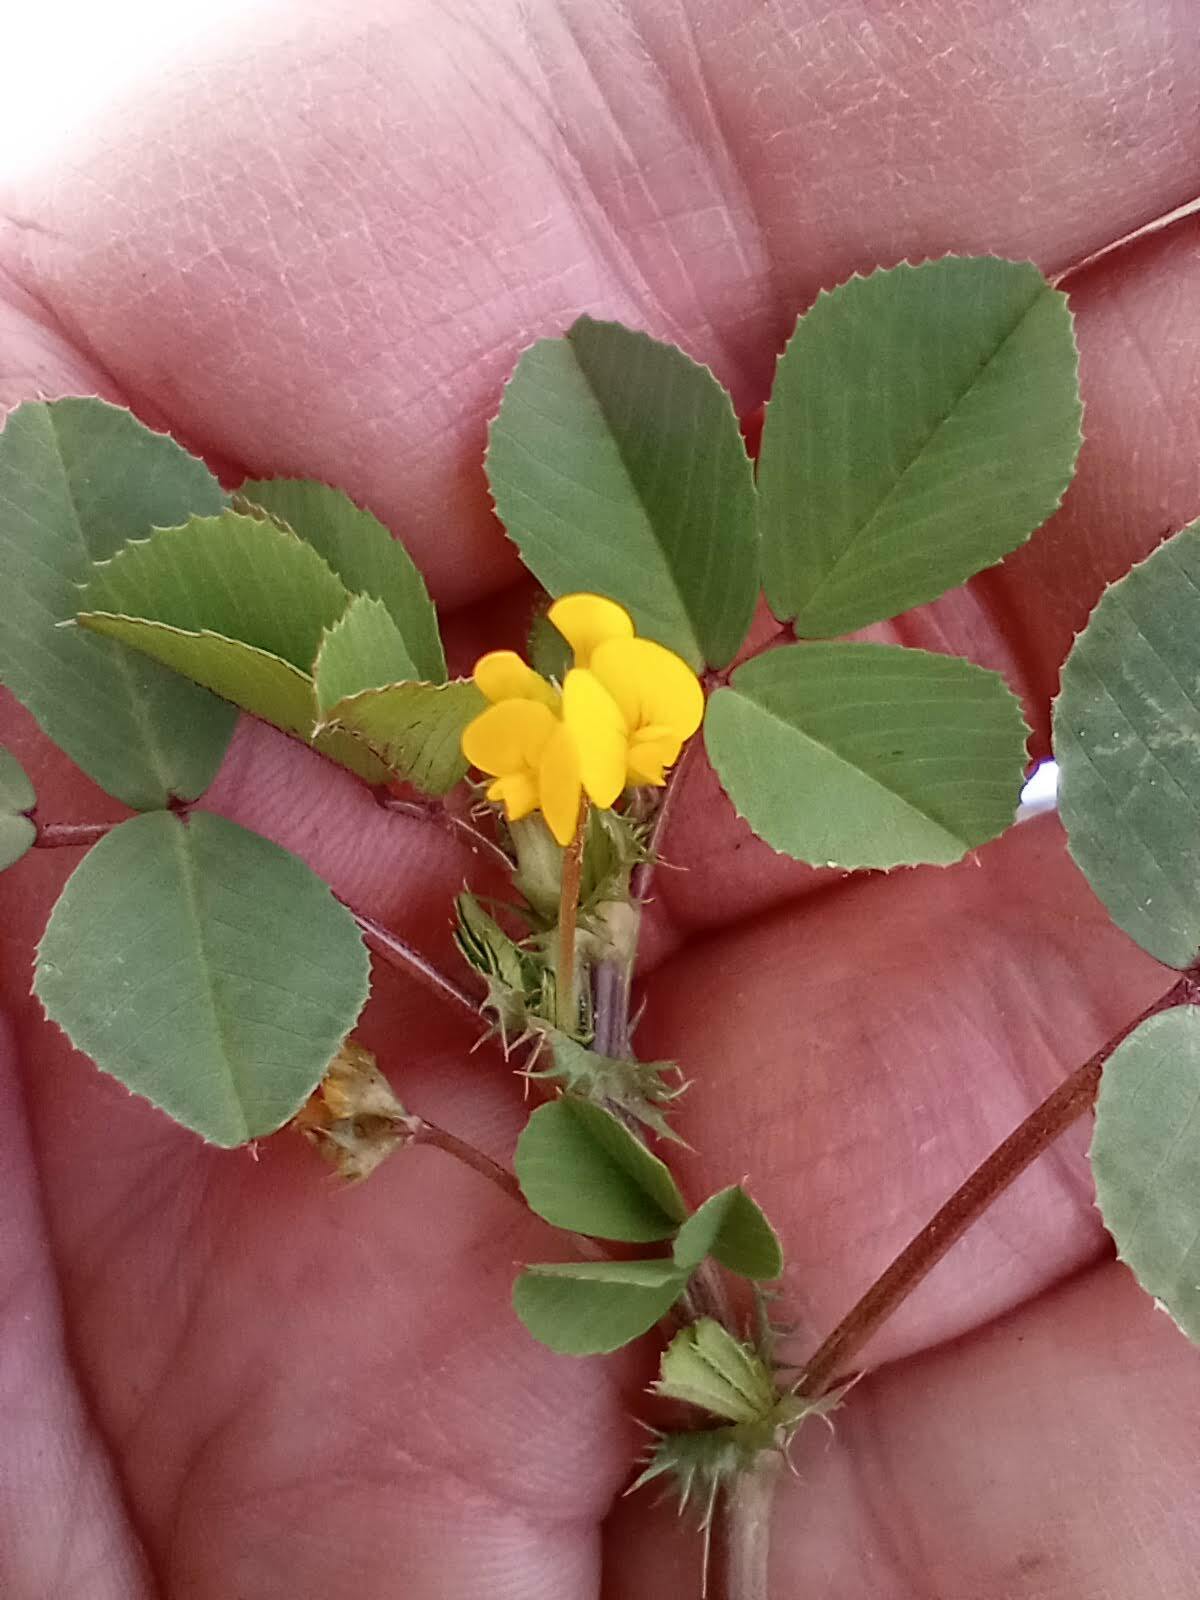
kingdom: Plantae
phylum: Tracheophyta
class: Magnoliopsida
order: Fabales
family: Fabaceae
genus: Medicago
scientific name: Medicago polymorpha
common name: Burclover
